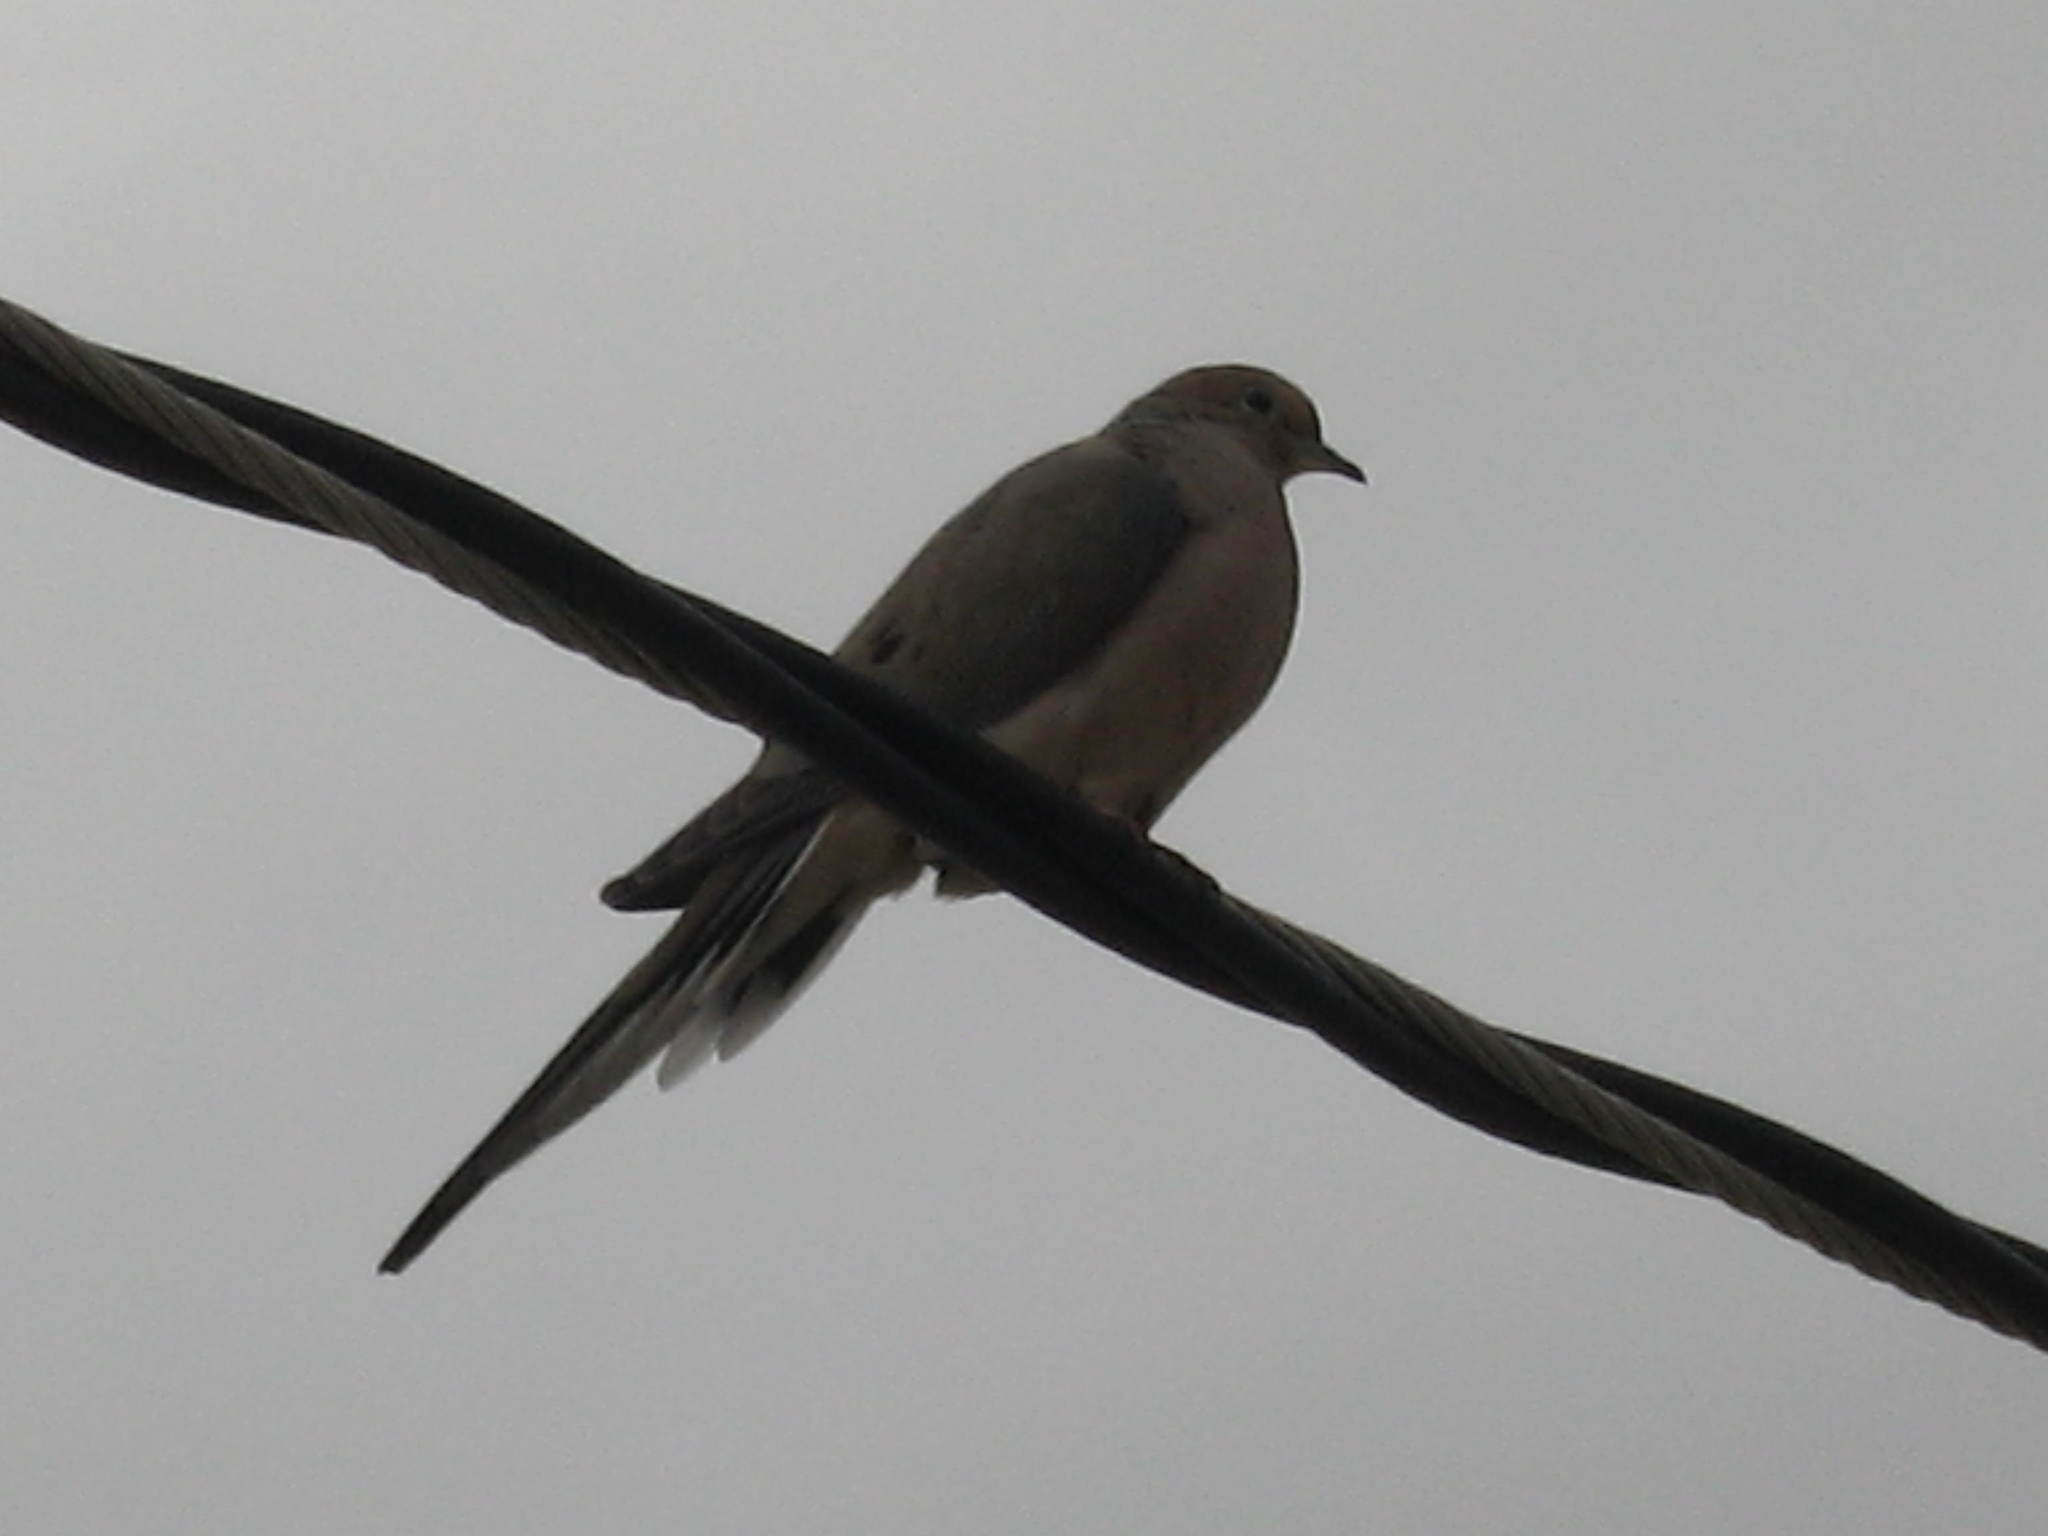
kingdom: Animalia
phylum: Chordata
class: Aves
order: Columbiformes
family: Columbidae
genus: Zenaida
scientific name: Zenaida macroura
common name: Mourning dove
